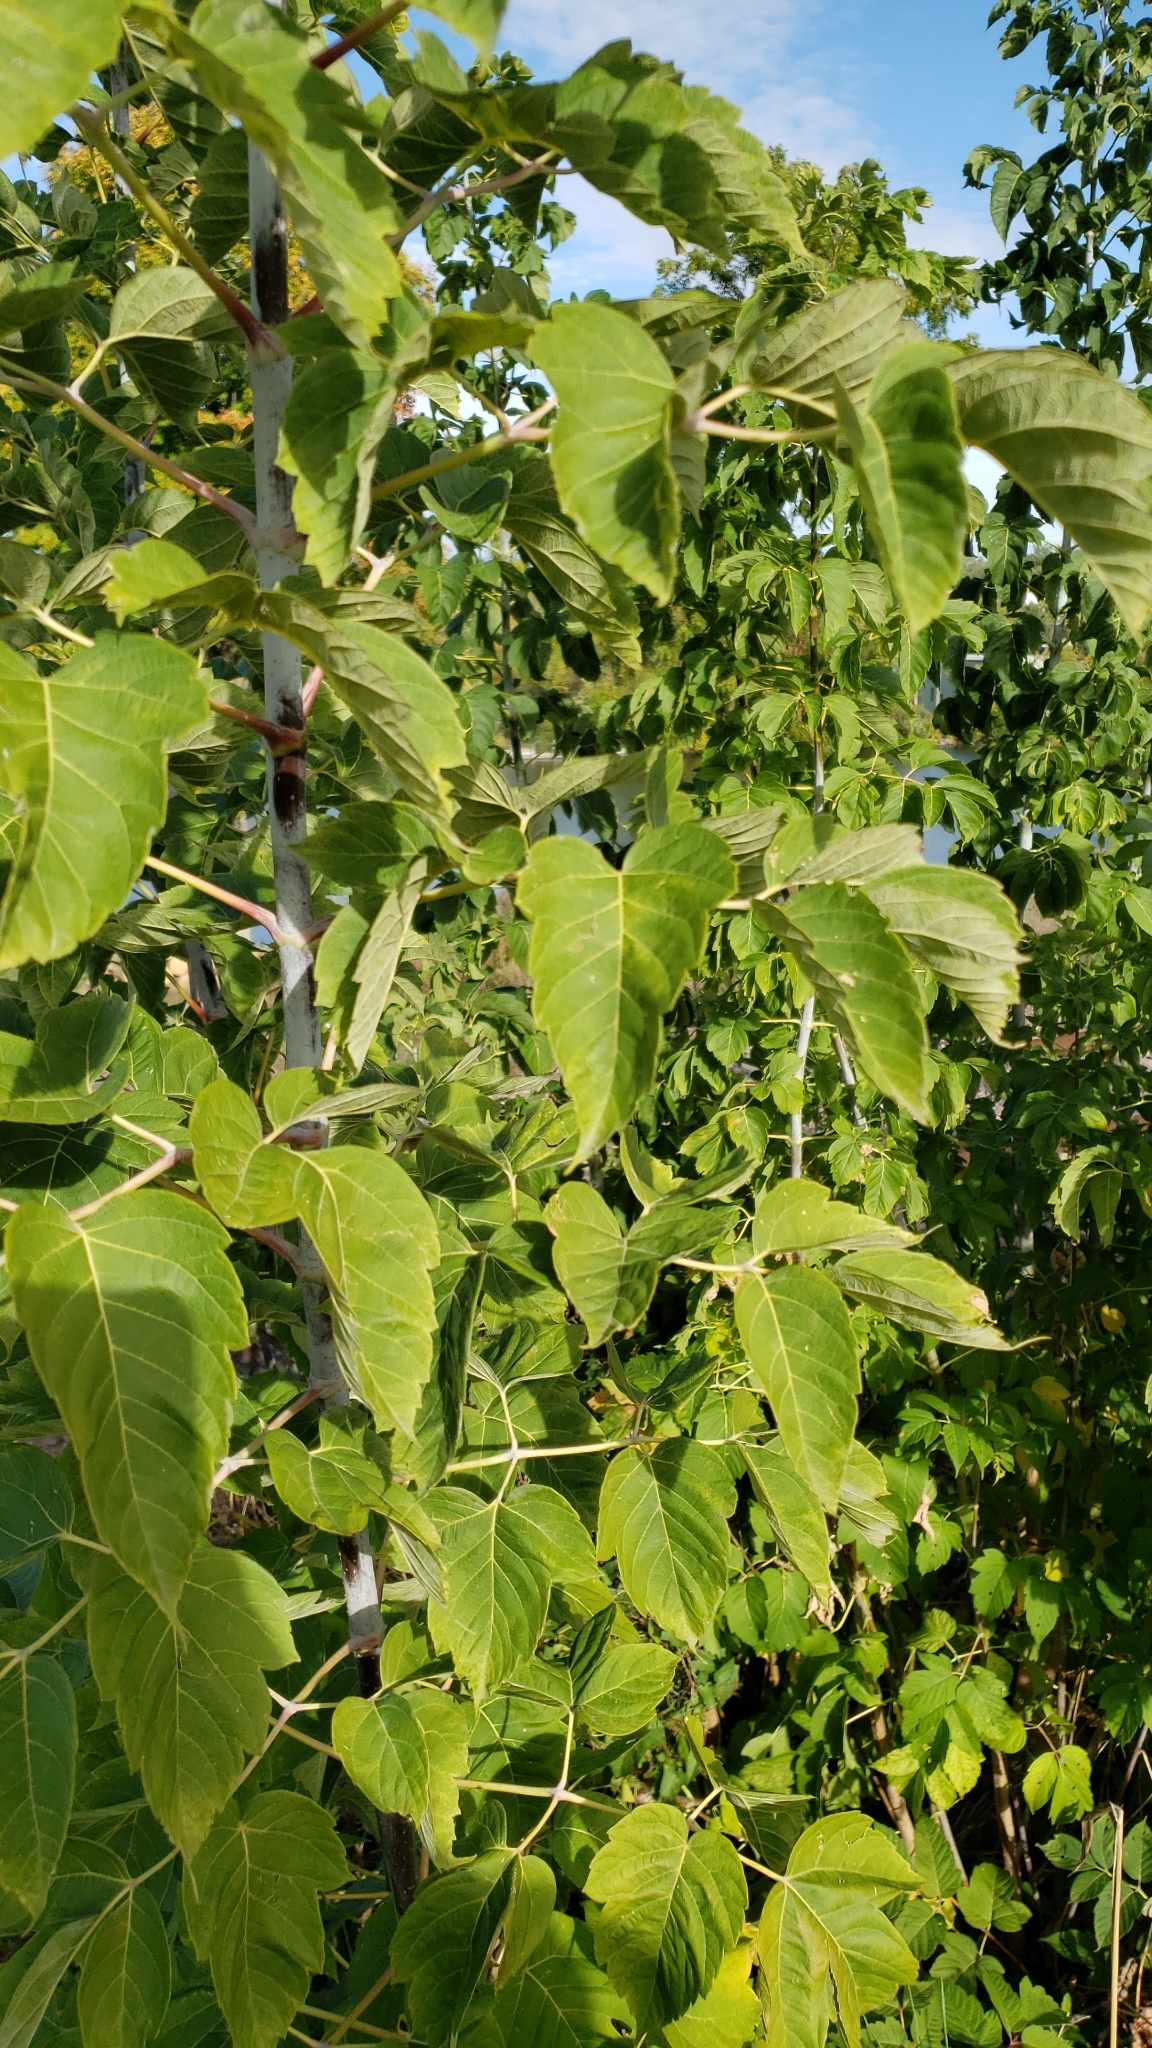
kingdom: Plantae
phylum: Tracheophyta
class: Magnoliopsida
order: Sapindales
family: Sapindaceae
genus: Acer
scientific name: Acer negundo
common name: Ashleaf maple
